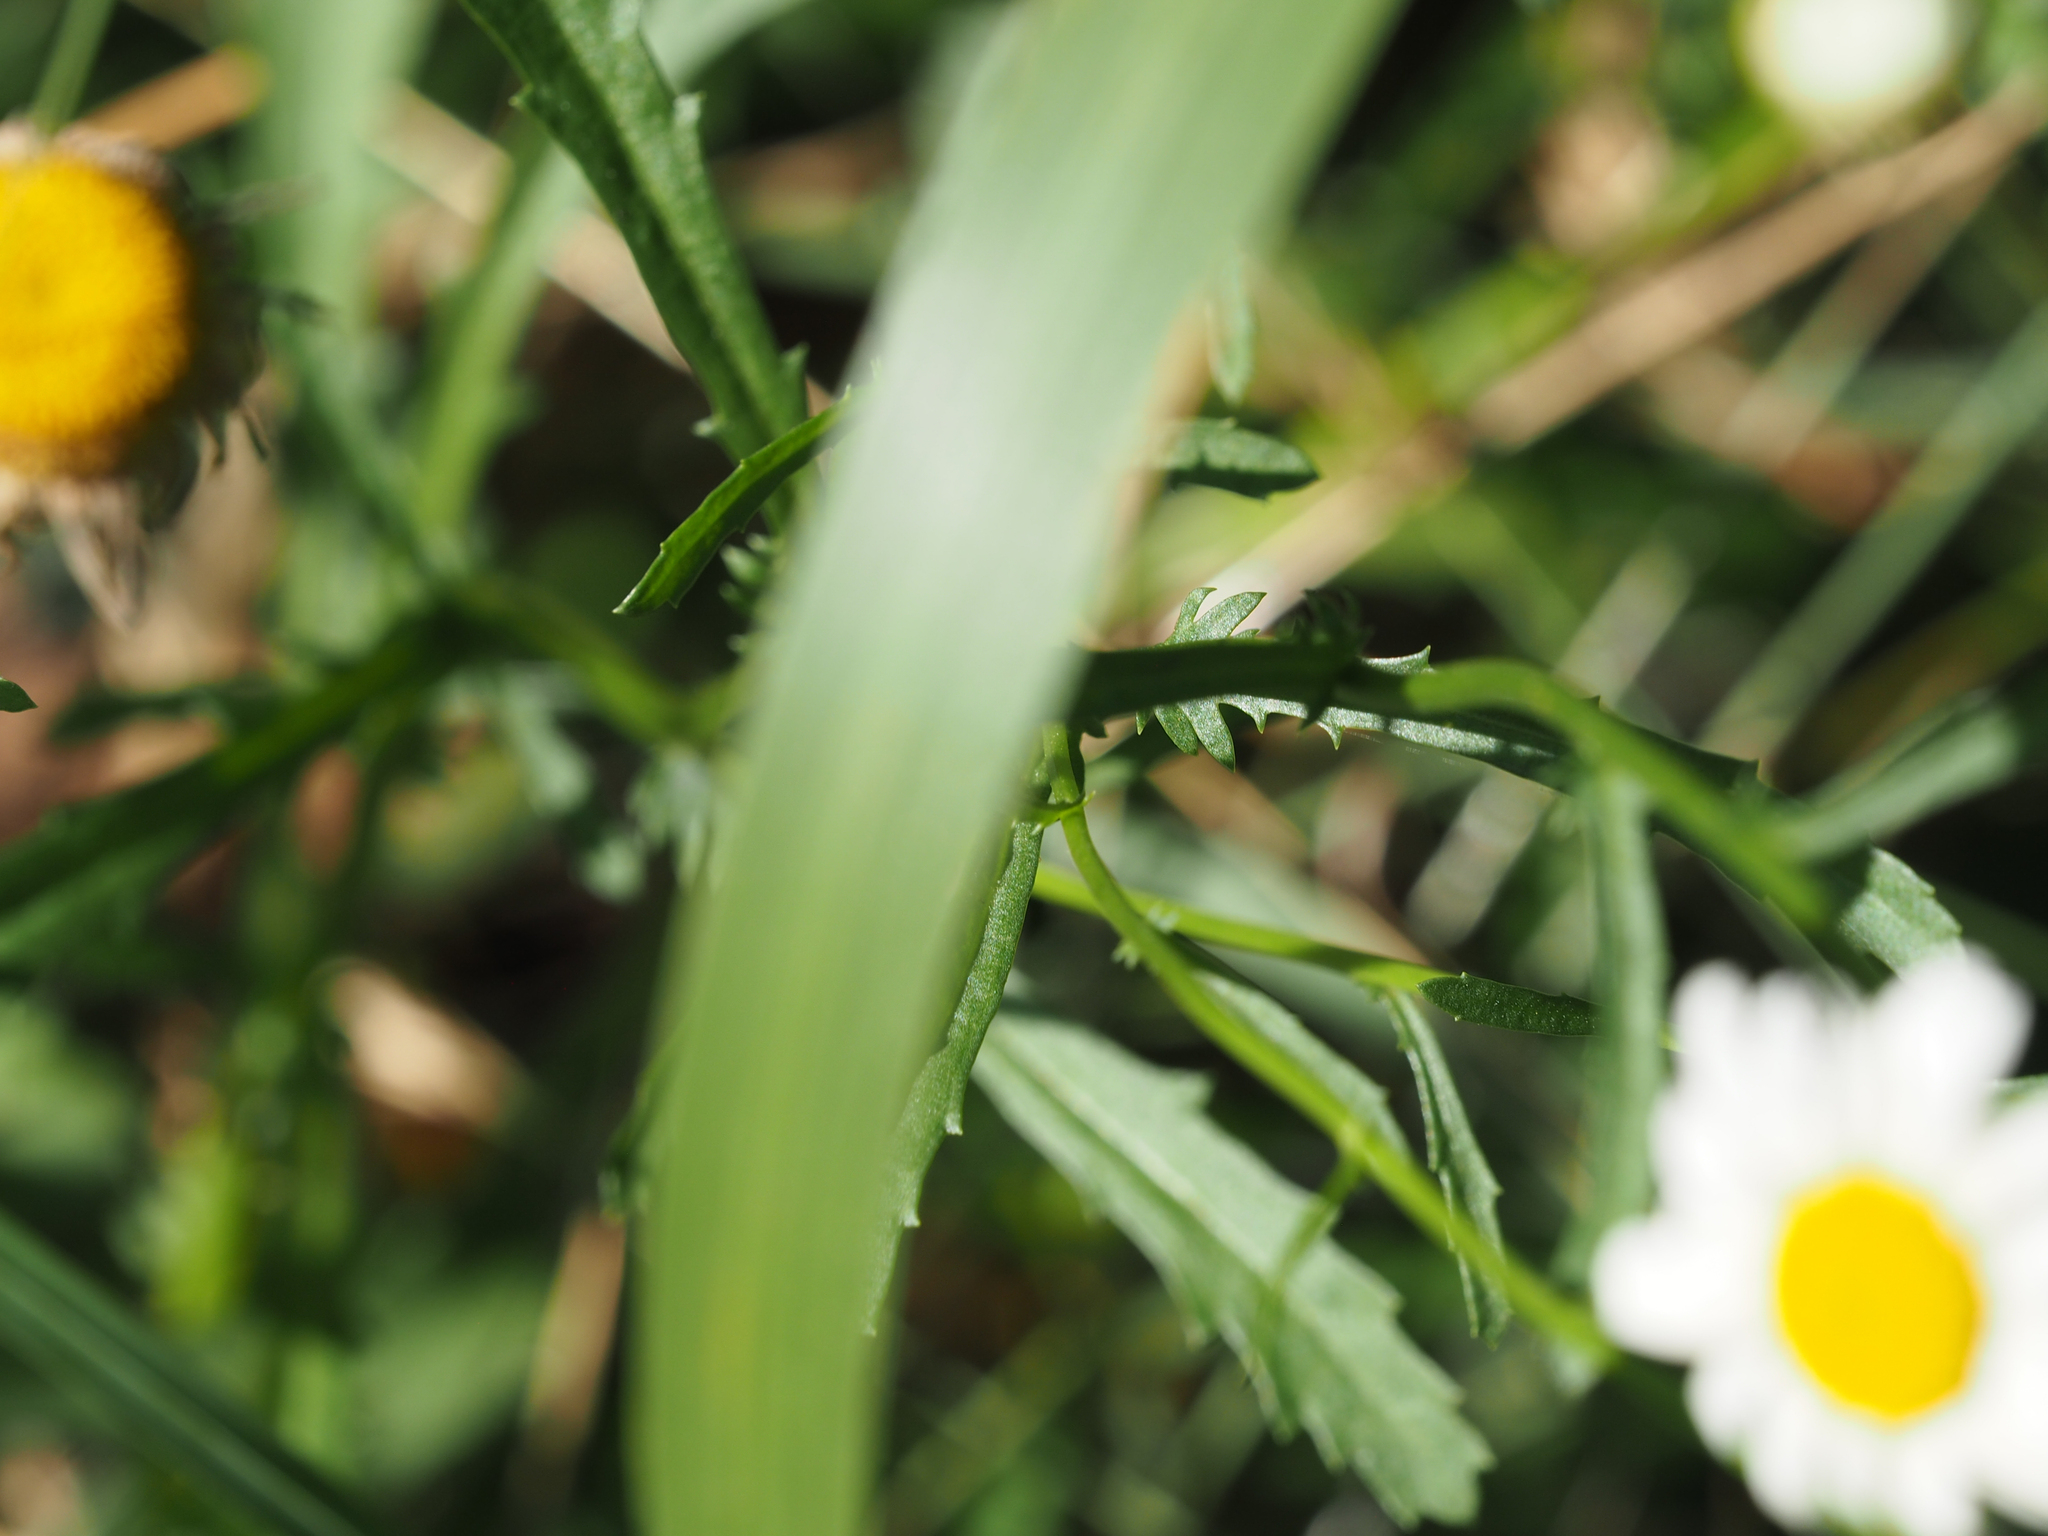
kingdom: Plantae
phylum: Tracheophyta
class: Magnoliopsida
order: Asterales
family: Asteraceae
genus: Leucanthemum
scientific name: Leucanthemum vulgare
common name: Oxeye daisy
